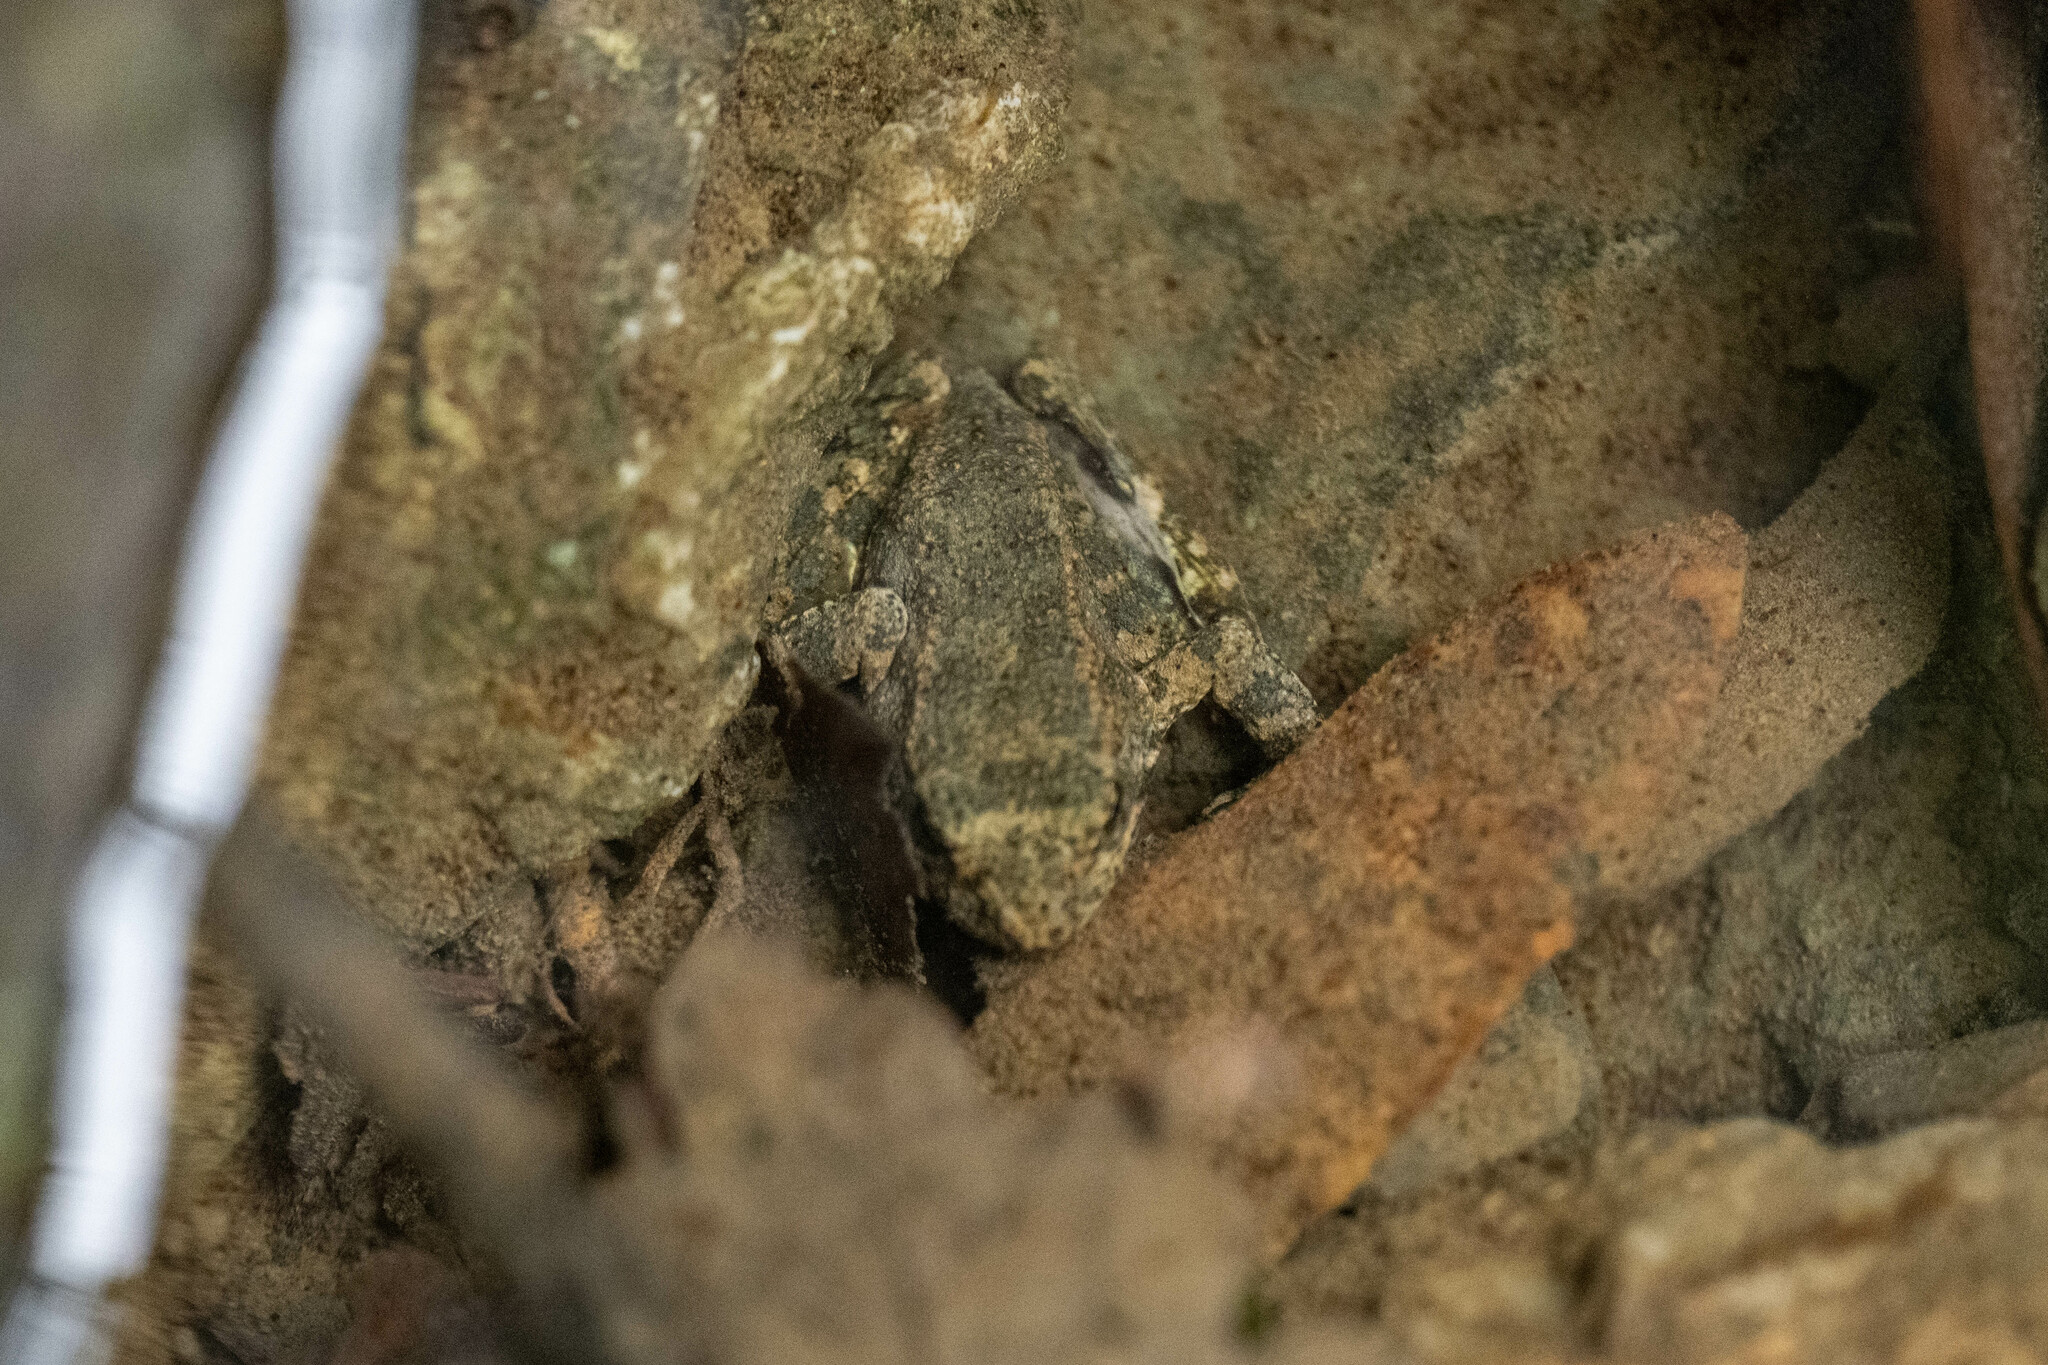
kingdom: Animalia
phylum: Chordata
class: Amphibia
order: Anura
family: Ranidae
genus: Rana
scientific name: Rana boylii
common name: Foothill yellow-legged frog
